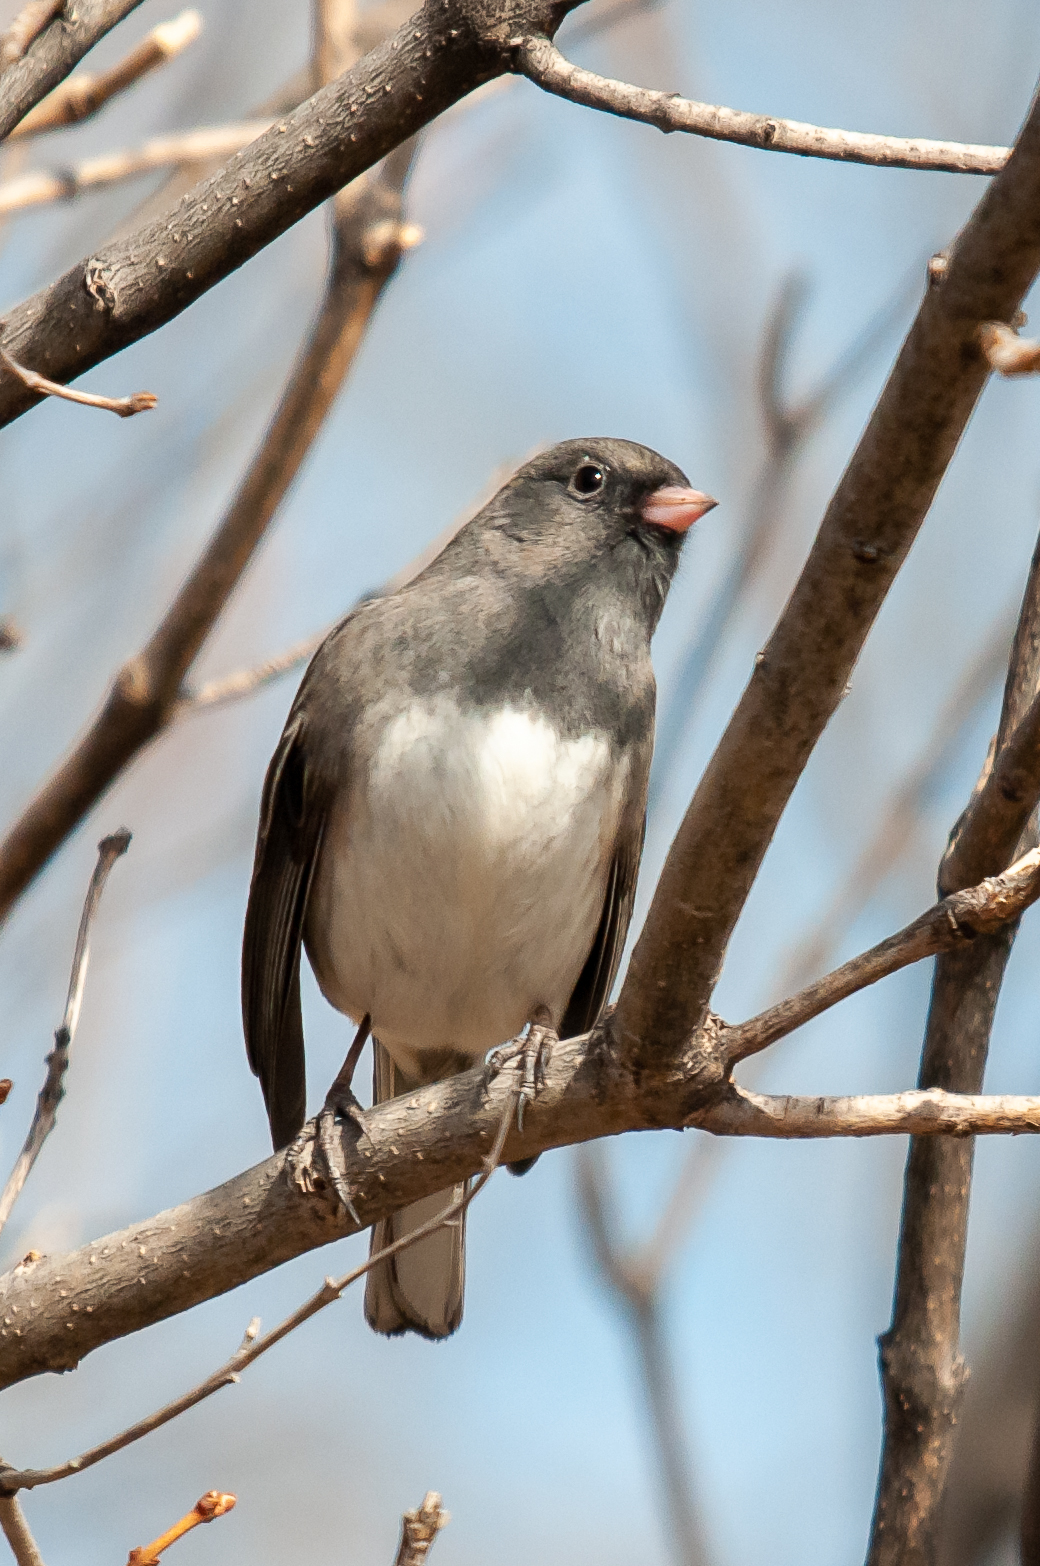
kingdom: Animalia
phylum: Chordata
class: Aves
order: Passeriformes
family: Passerellidae
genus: Junco
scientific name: Junco hyemalis
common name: Dark-eyed junco
